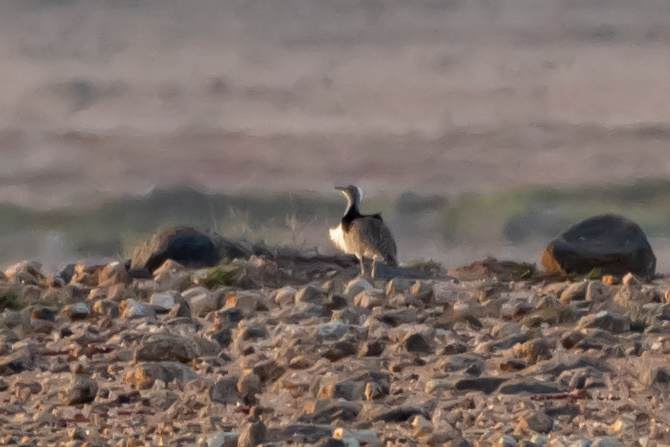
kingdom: Animalia
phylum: Chordata
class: Aves
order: Otidiformes
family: Otididae
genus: Chlamydotis
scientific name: Chlamydotis undulata
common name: Houbara bustard
